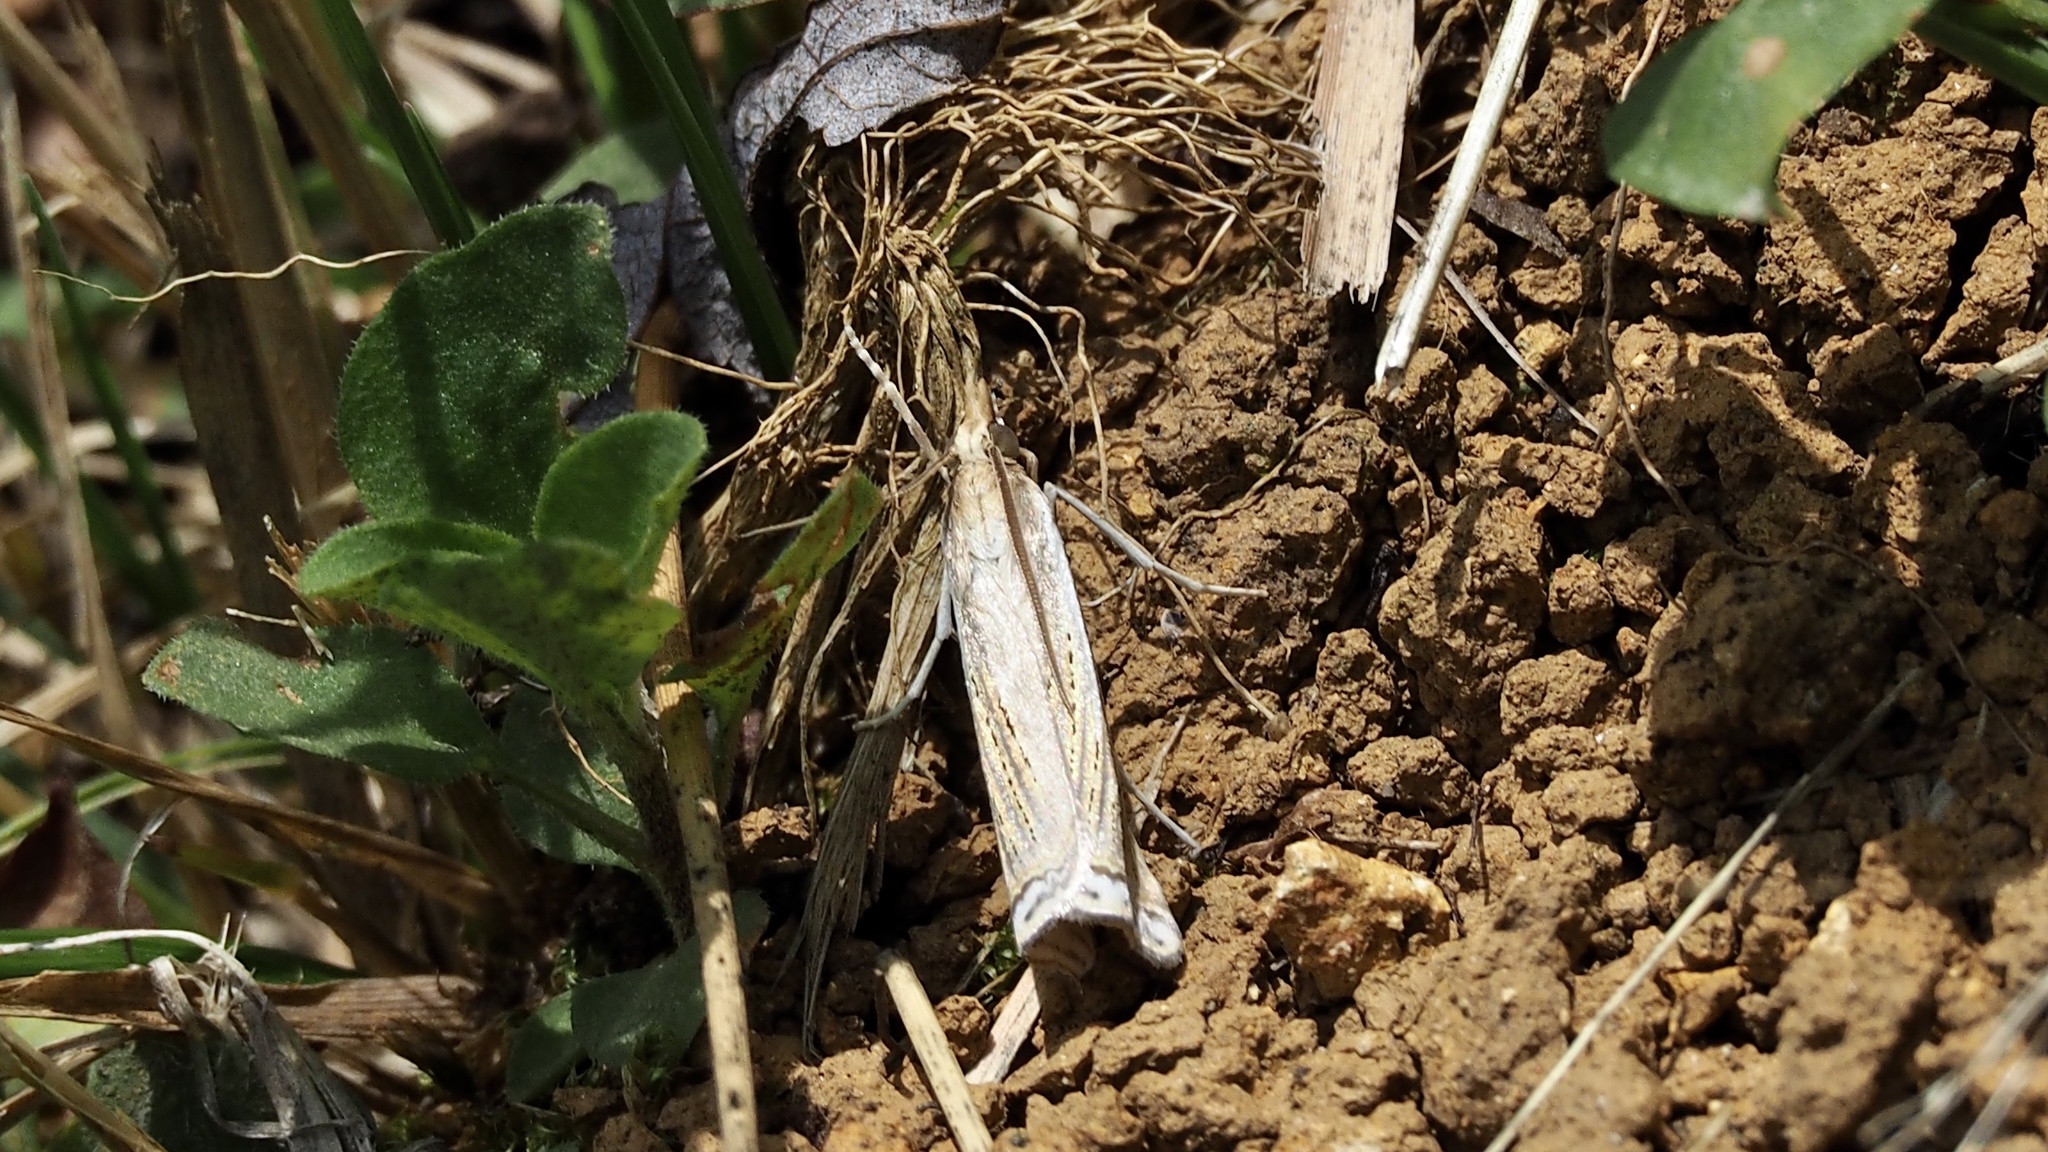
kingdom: Animalia
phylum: Arthropoda
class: Insecta
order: Lepidoptera
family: Crambidae
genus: Ancylolomia
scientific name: Ancylolomia japonica
